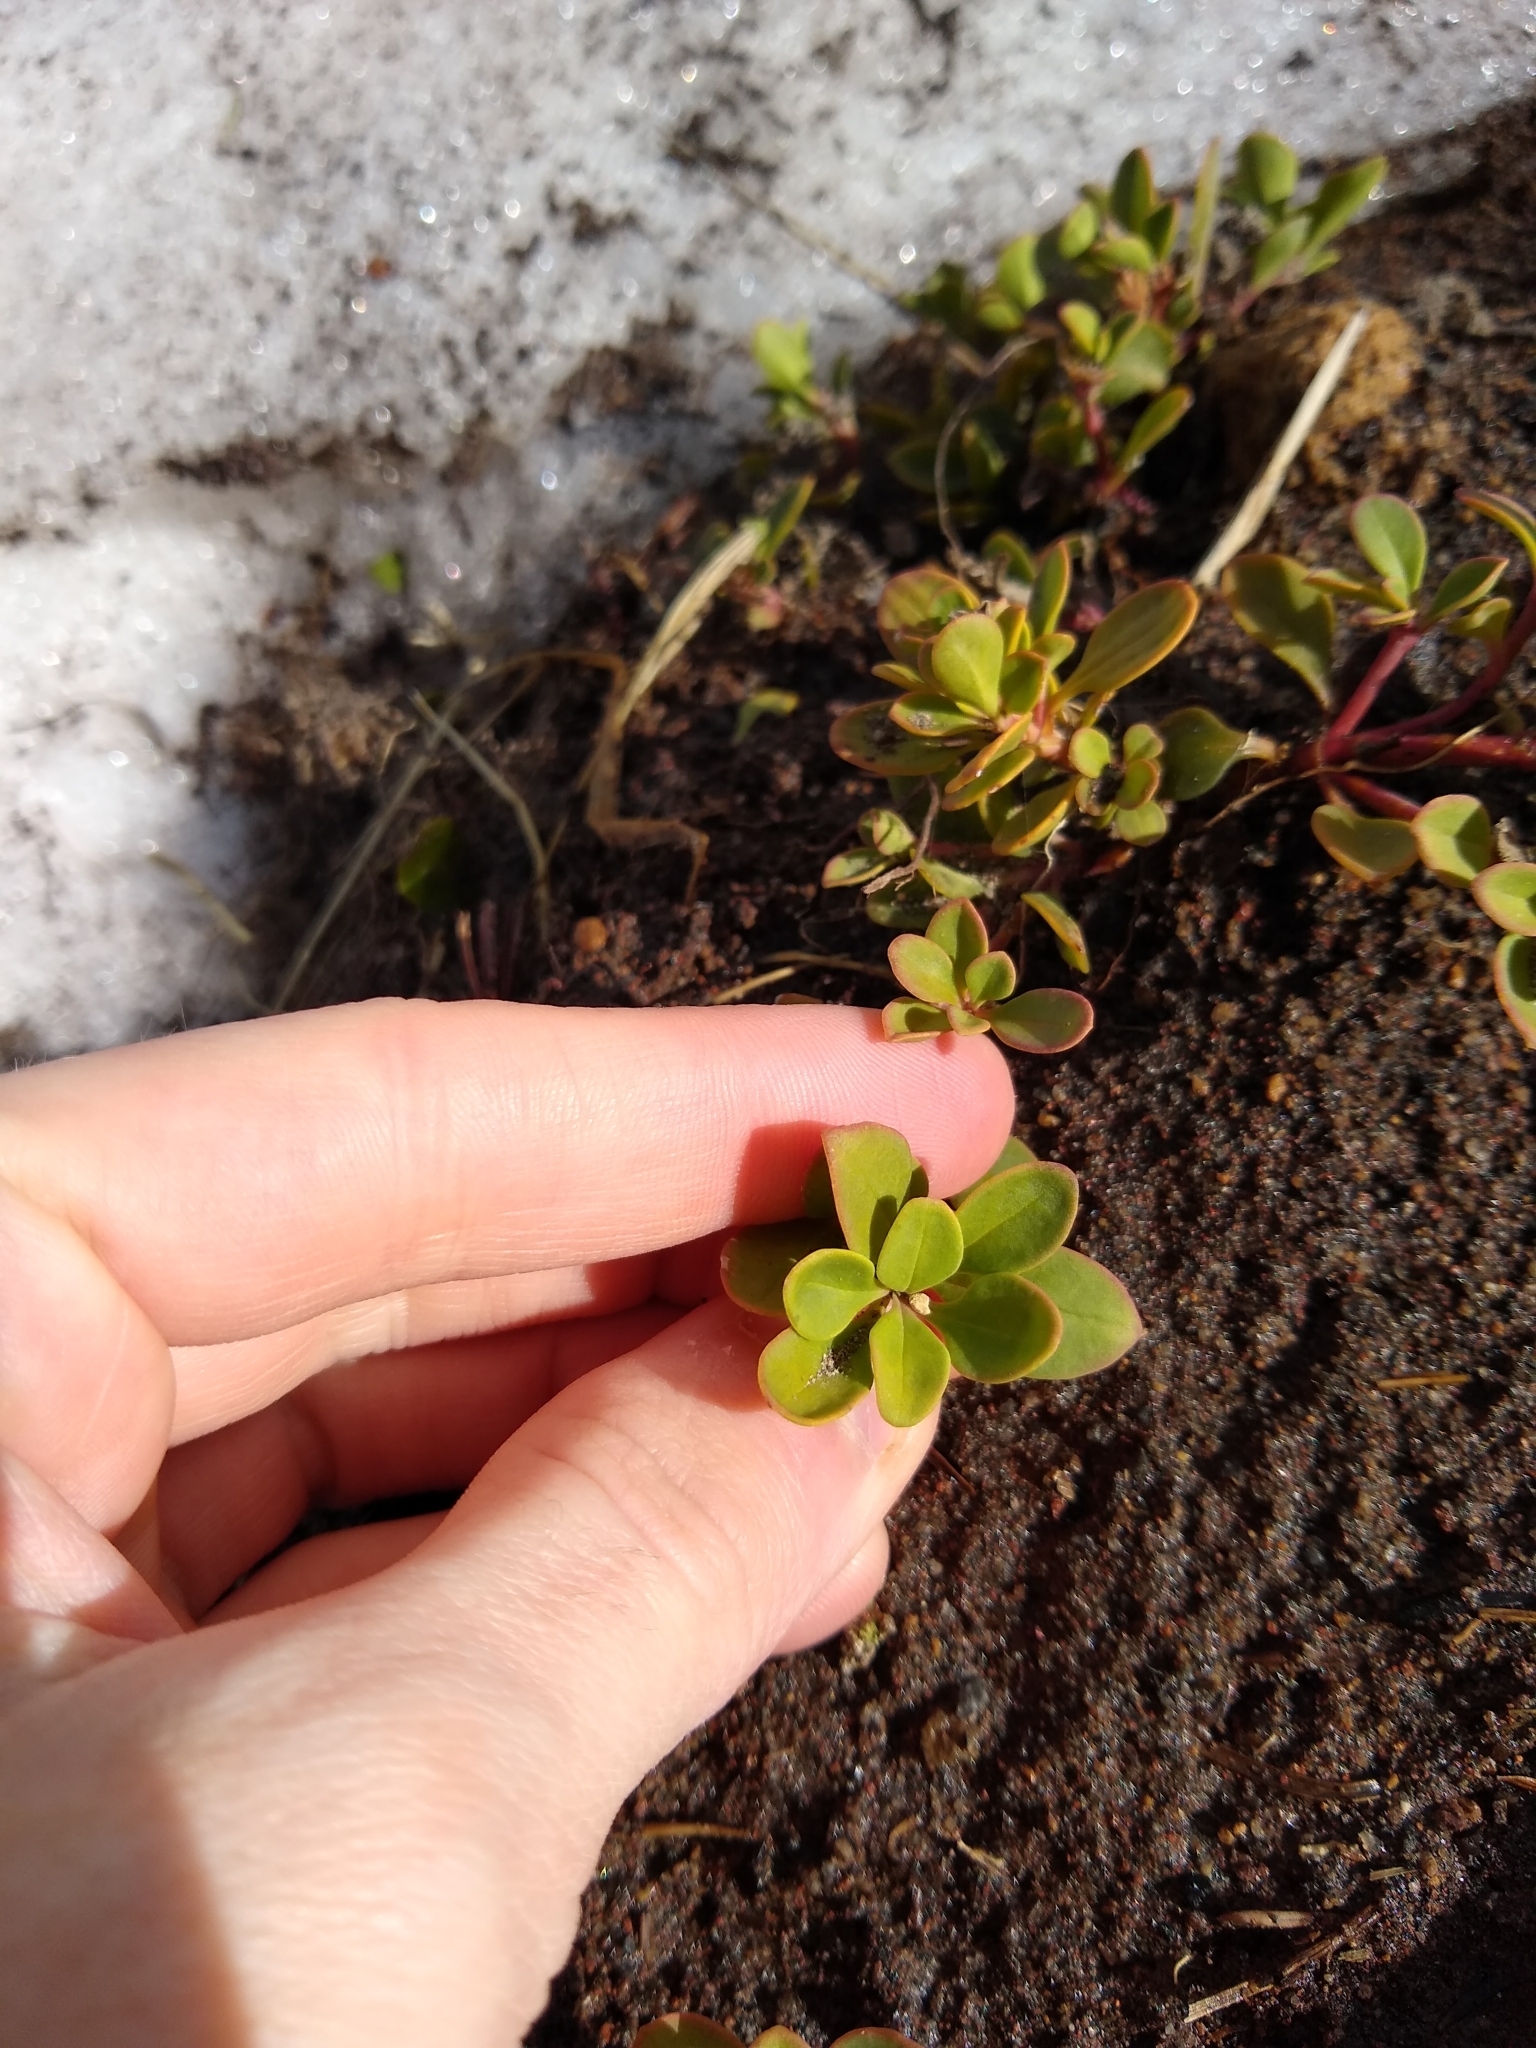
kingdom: Plantae
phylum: Tracheophyta
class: Magnoliopsida
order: Lamiales
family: Plantaginaceae
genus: Penstemon
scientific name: Penstemon davidsonii
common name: Davidson's penstemon
